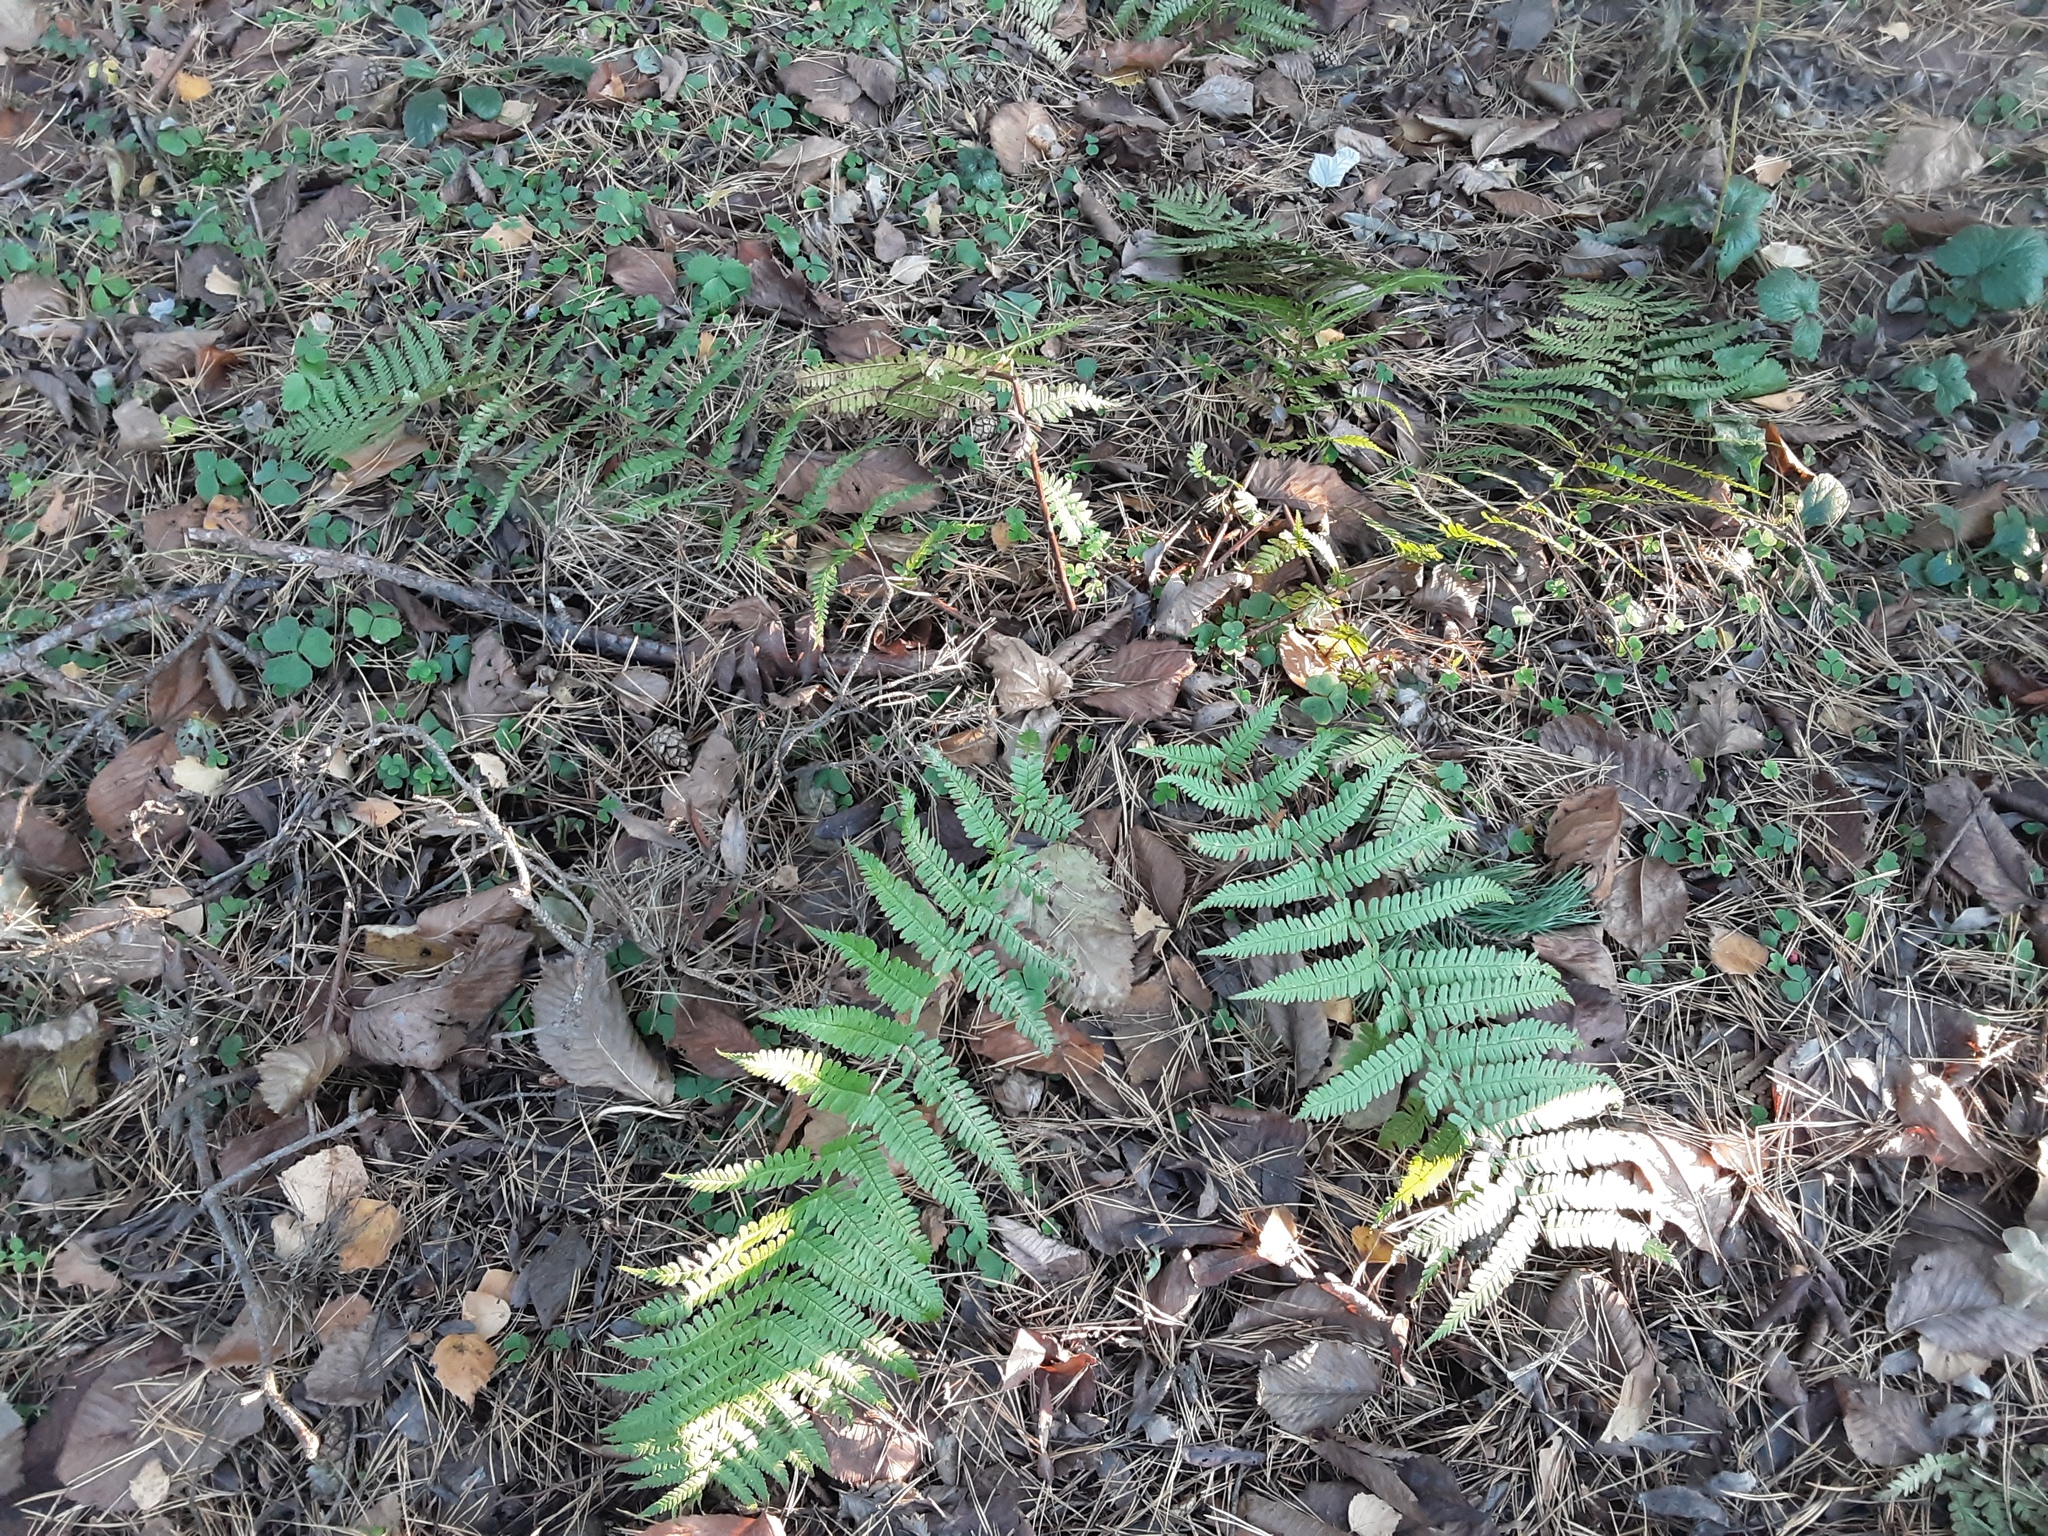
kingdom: Plantae
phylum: Tracheophyta
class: Polypodiopsida
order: Polypodiales
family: Dryopteridaceae
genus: Dryopteris
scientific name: Dryopteris filix-mas
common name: Male fern
